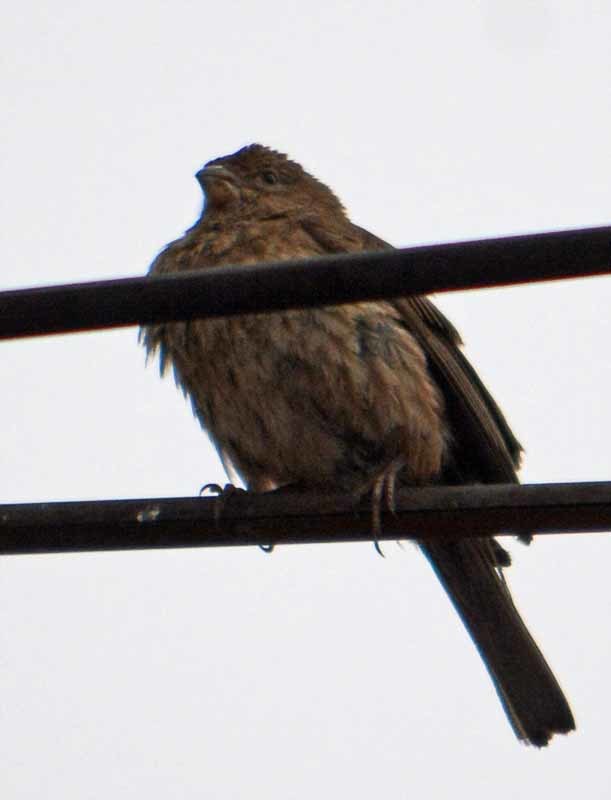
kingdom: Animalia
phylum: Chordata
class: Aves
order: Passeriformes
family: Fringillidae
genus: Haemorhous
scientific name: Haemorhous mexicanus
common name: House finch
